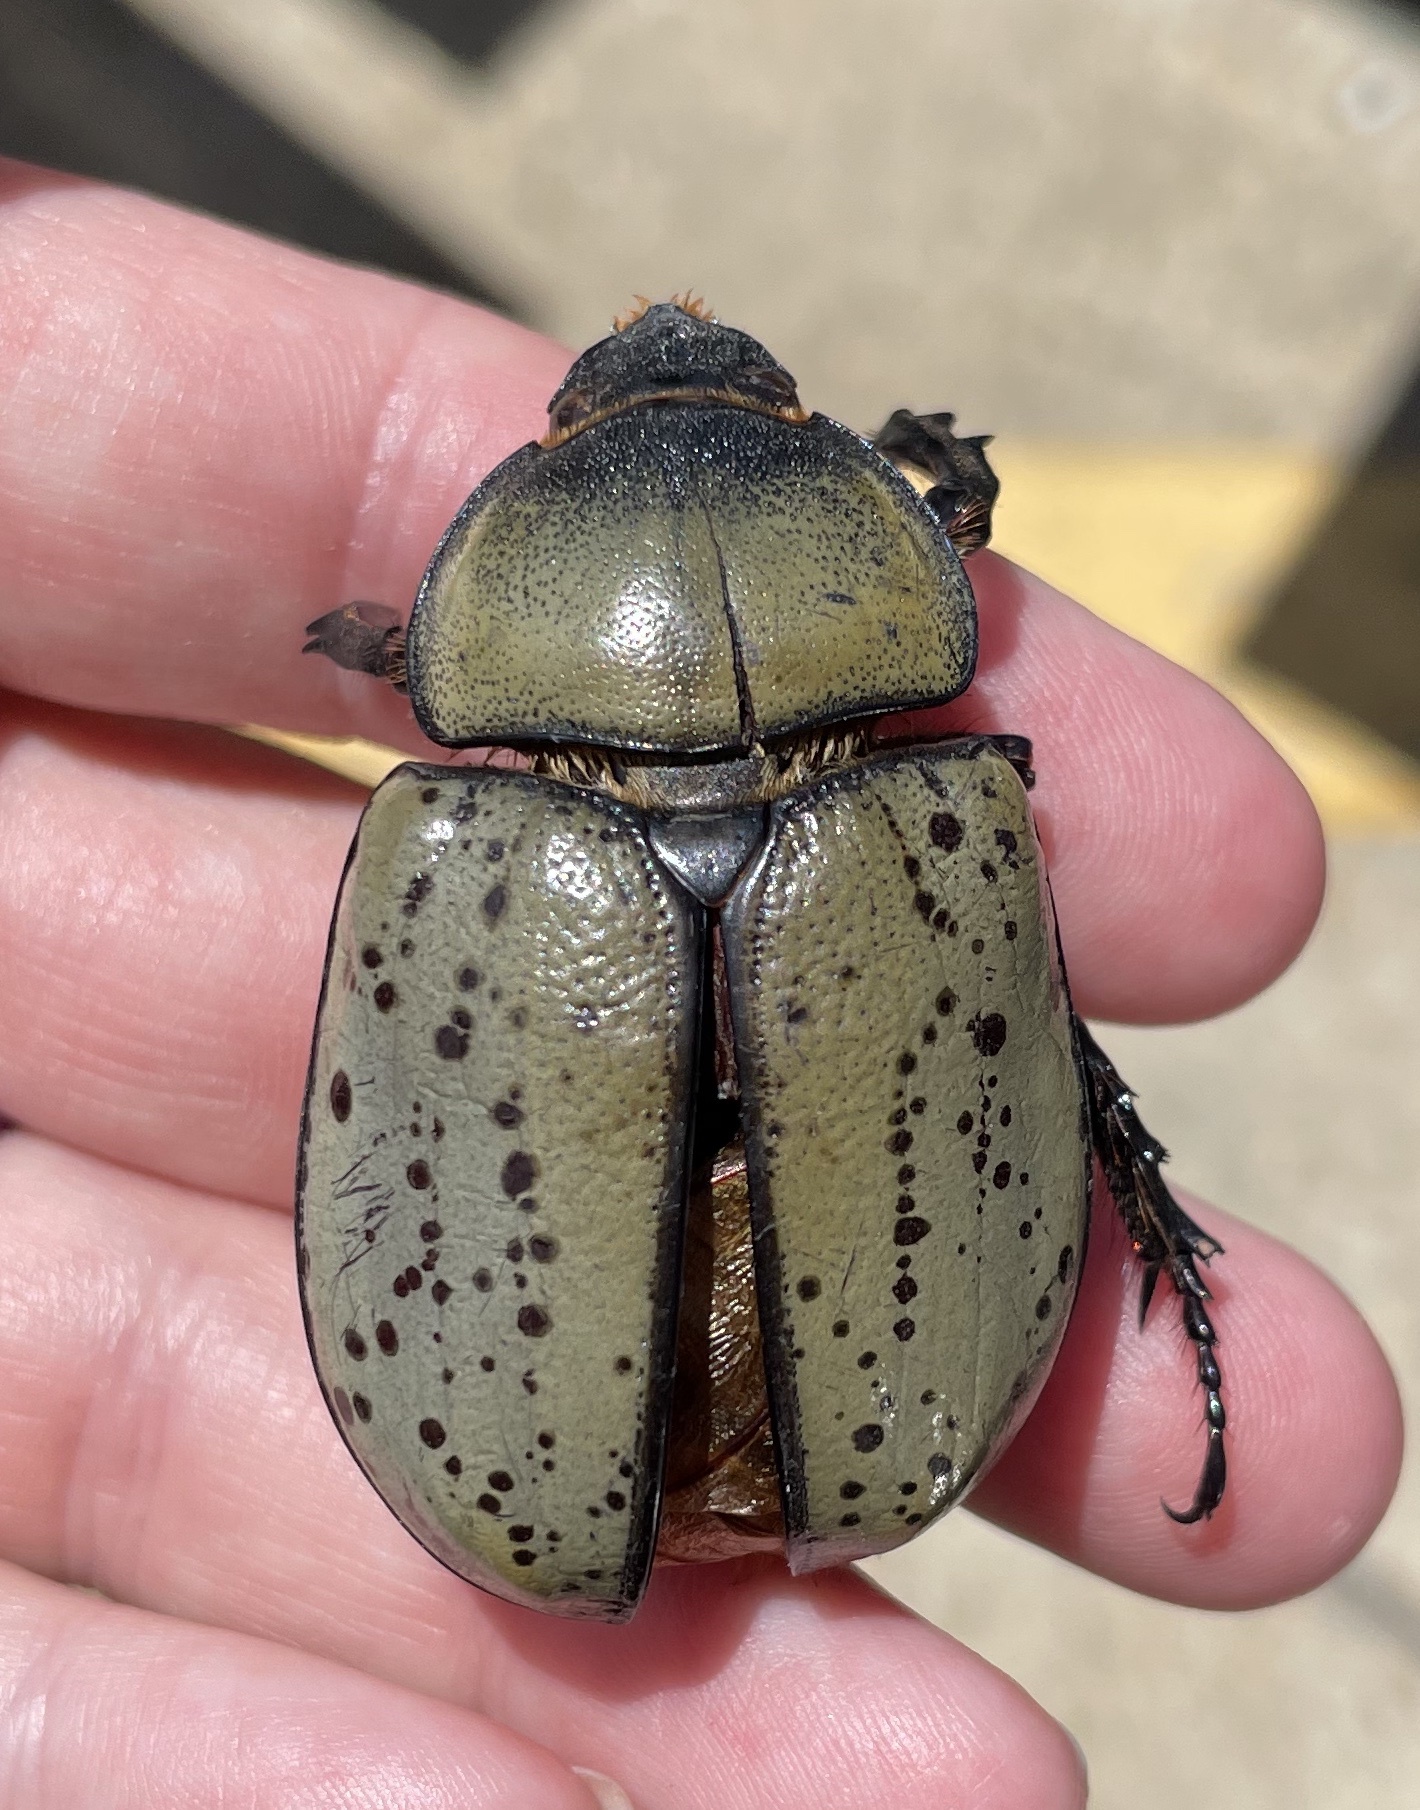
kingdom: Animalia
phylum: Arthropoda
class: Insecta
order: Coleoptera
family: Scarabaeidae
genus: Dynastes
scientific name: Dynastes tityus
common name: Eastern hercules beetle
